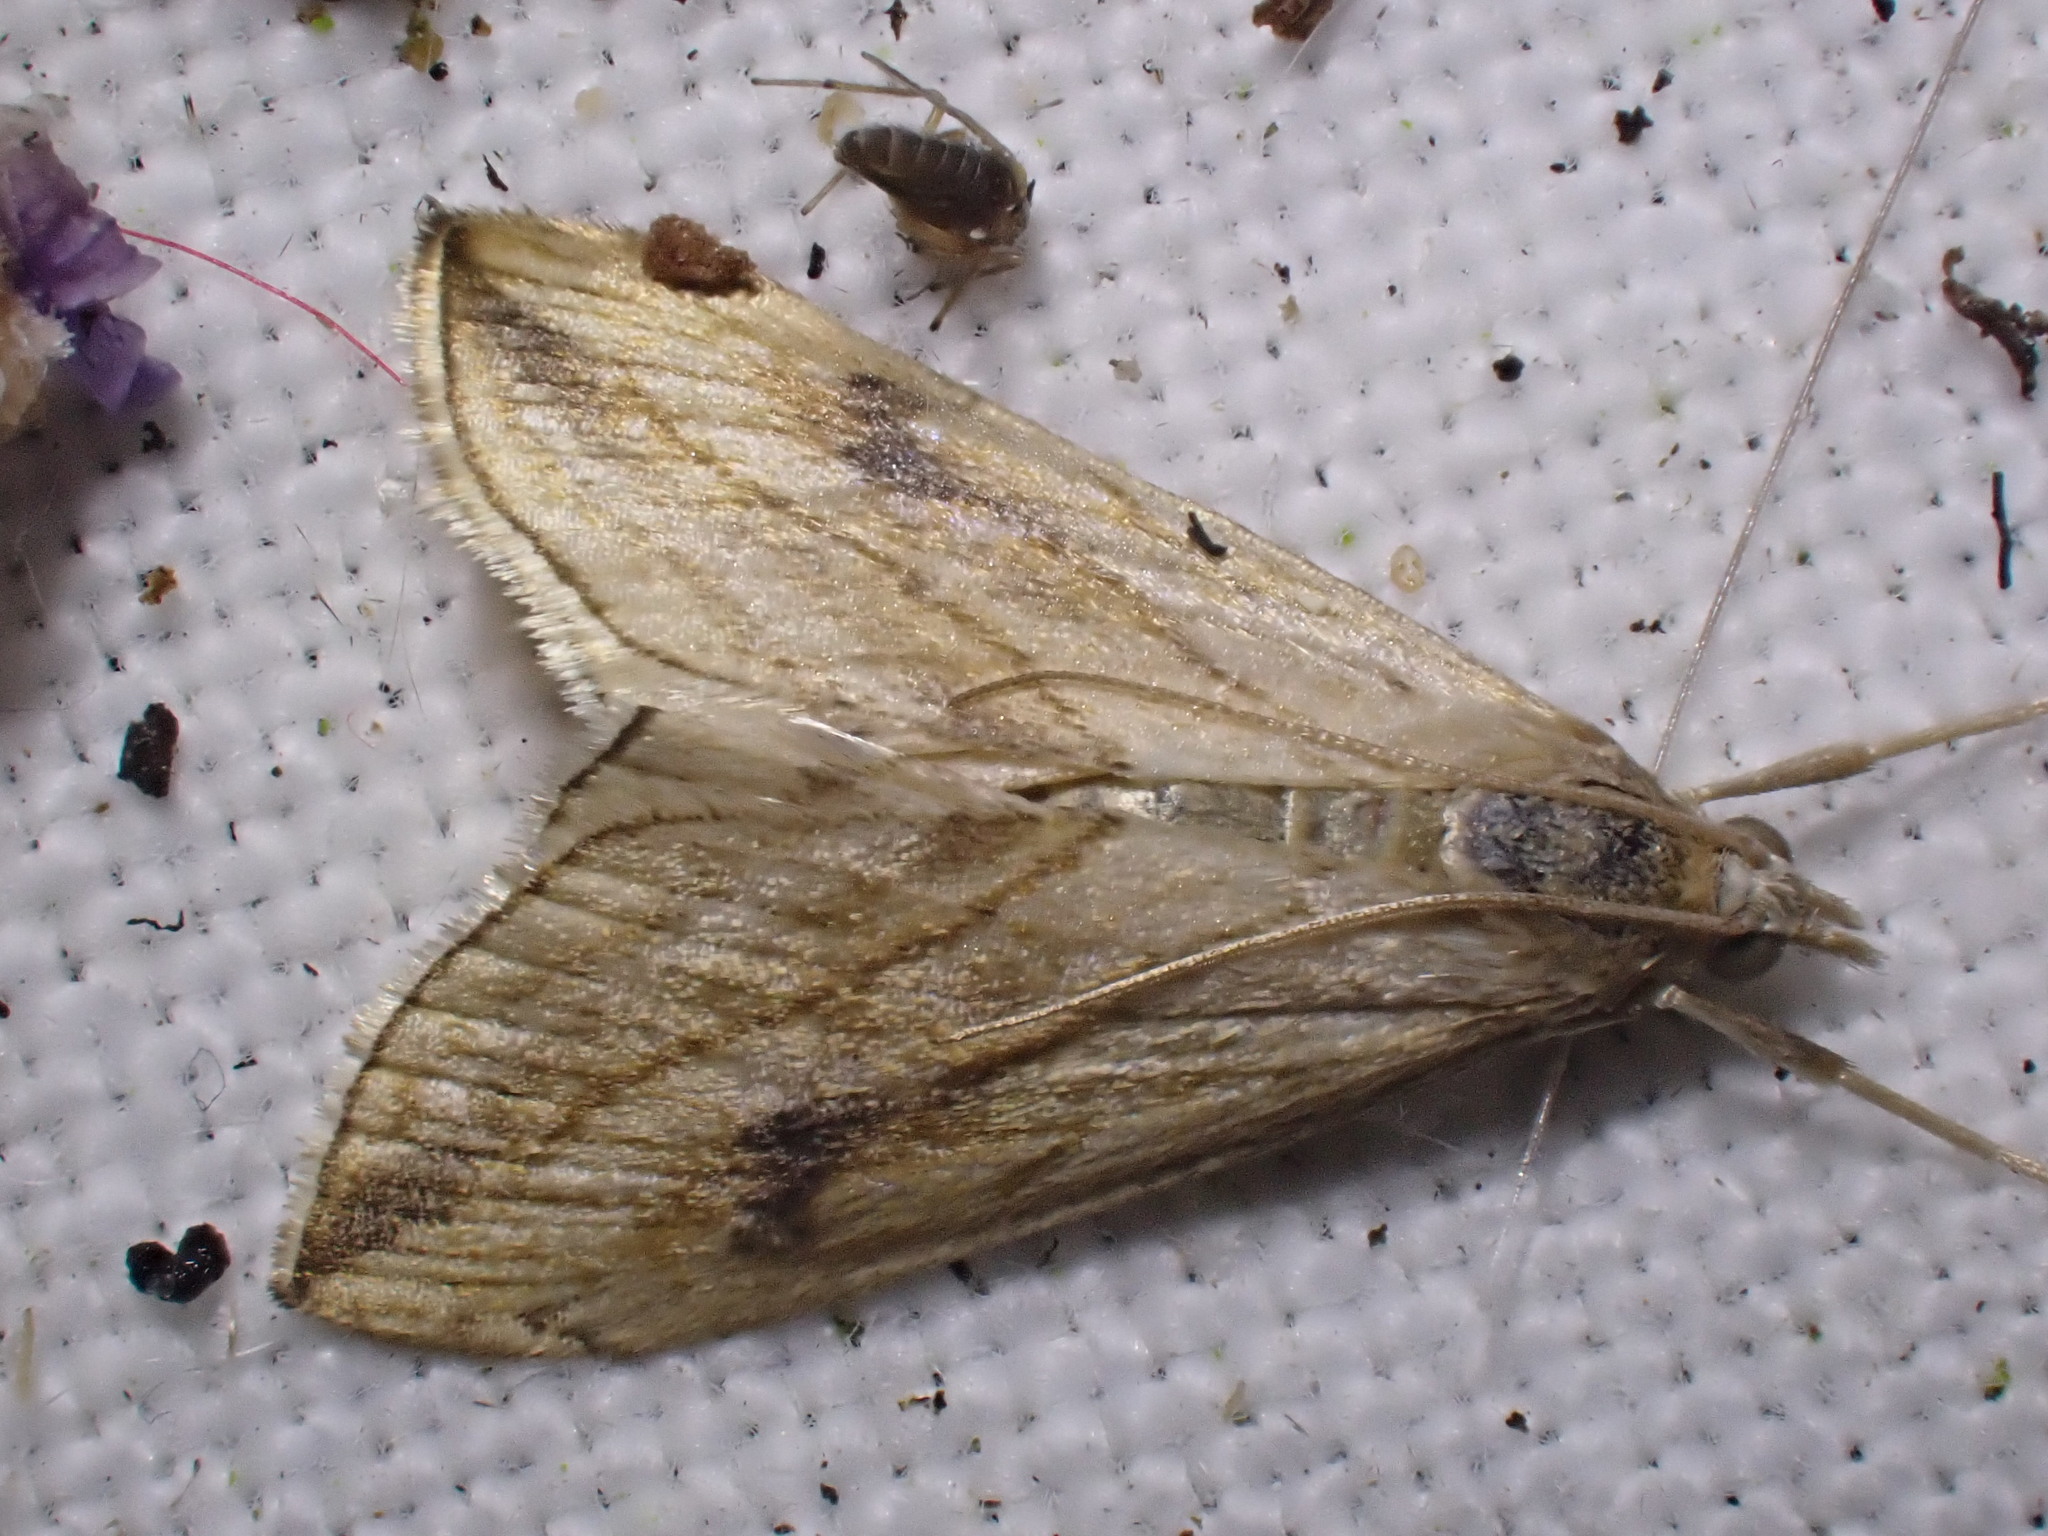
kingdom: Animalia
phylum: Arthropoda
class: Insecta
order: Lepidoptera
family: Crambidae
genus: Evergestis
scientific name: Evergestis forficalis
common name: Garden pebble
